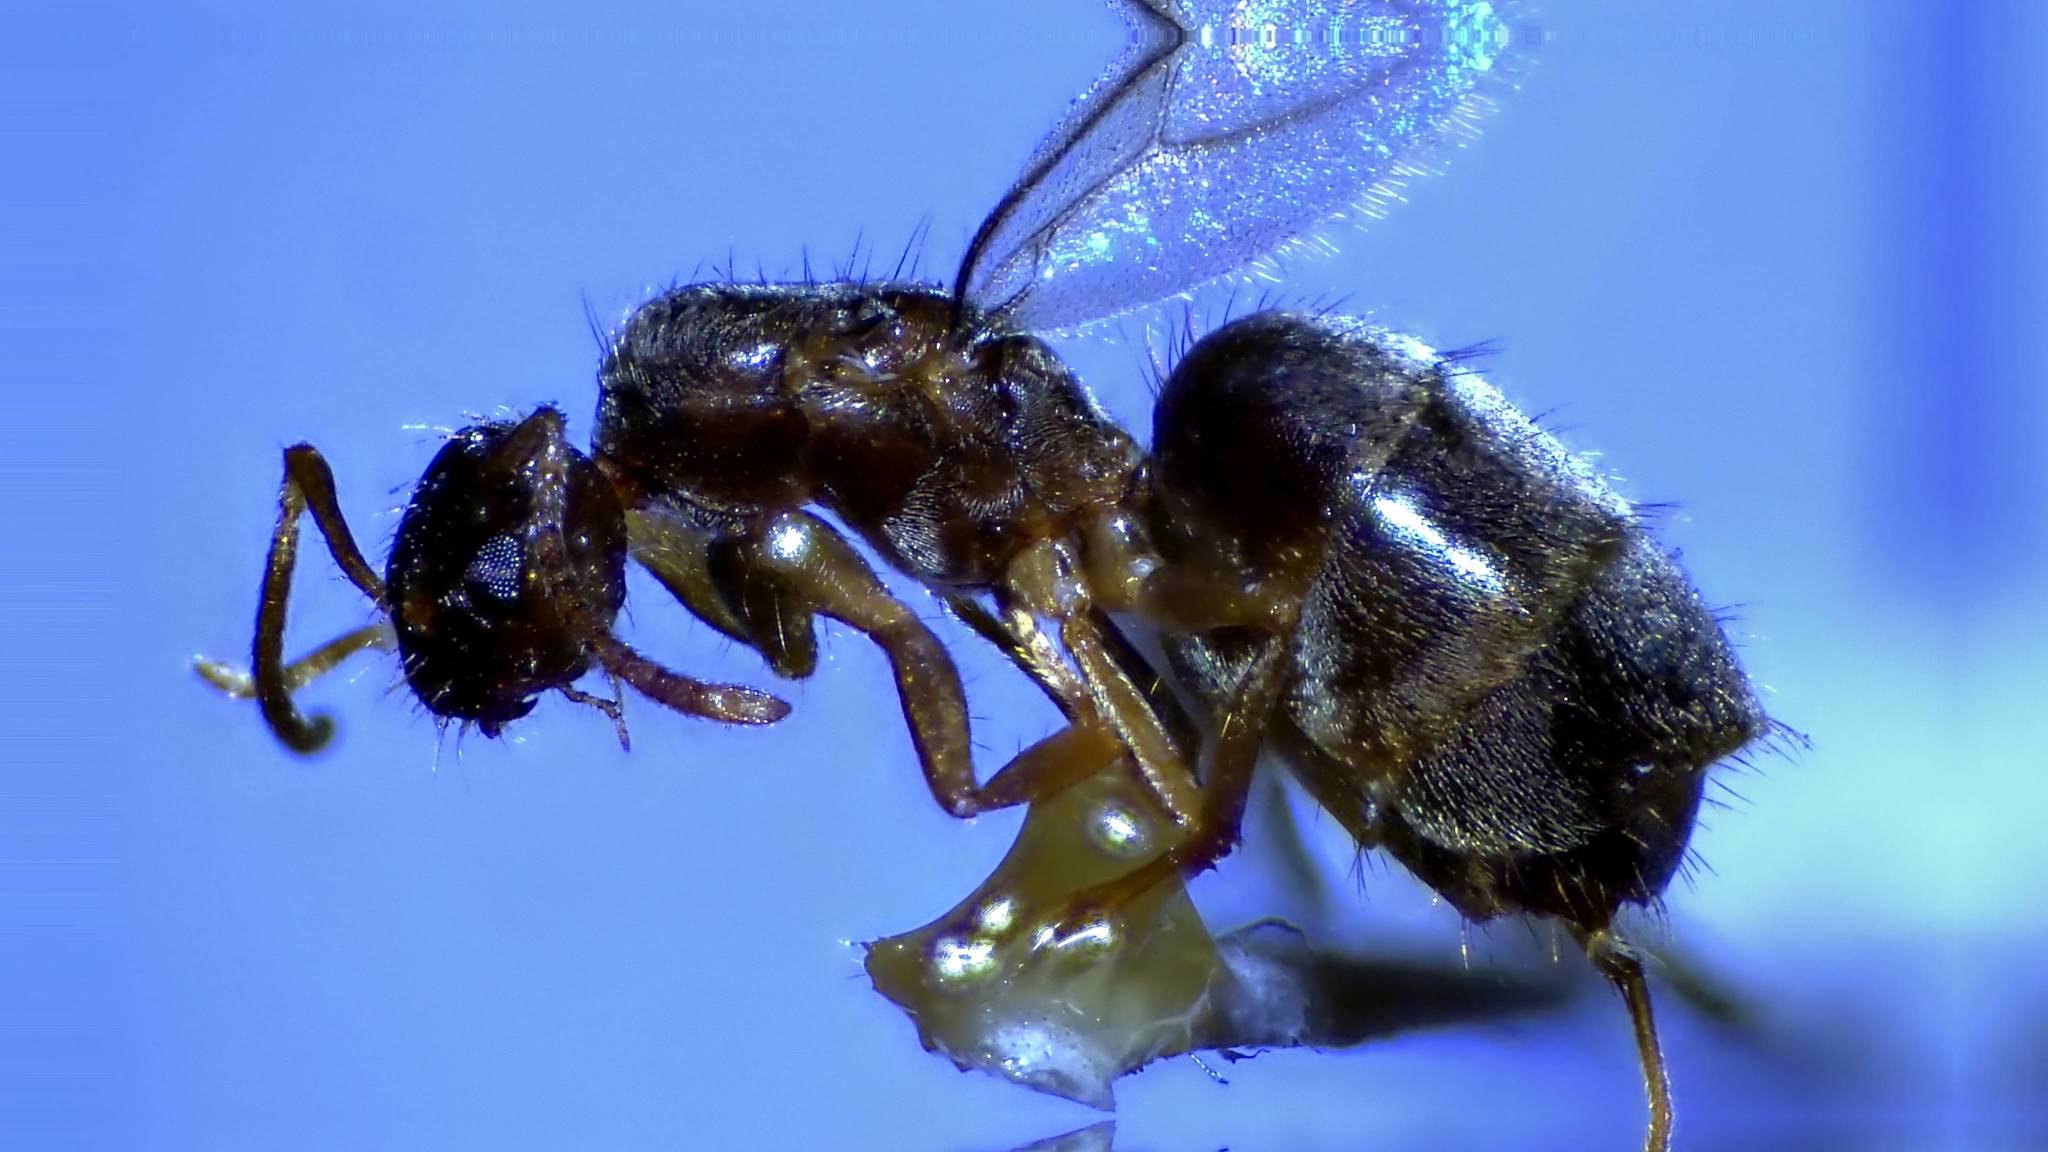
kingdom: Animalia
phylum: Arthropoda
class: Insecta
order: Hymenoptera
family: Formicidae
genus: Paratrechina
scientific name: Paratrechina flavipes
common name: Eastern asian formicine ant
